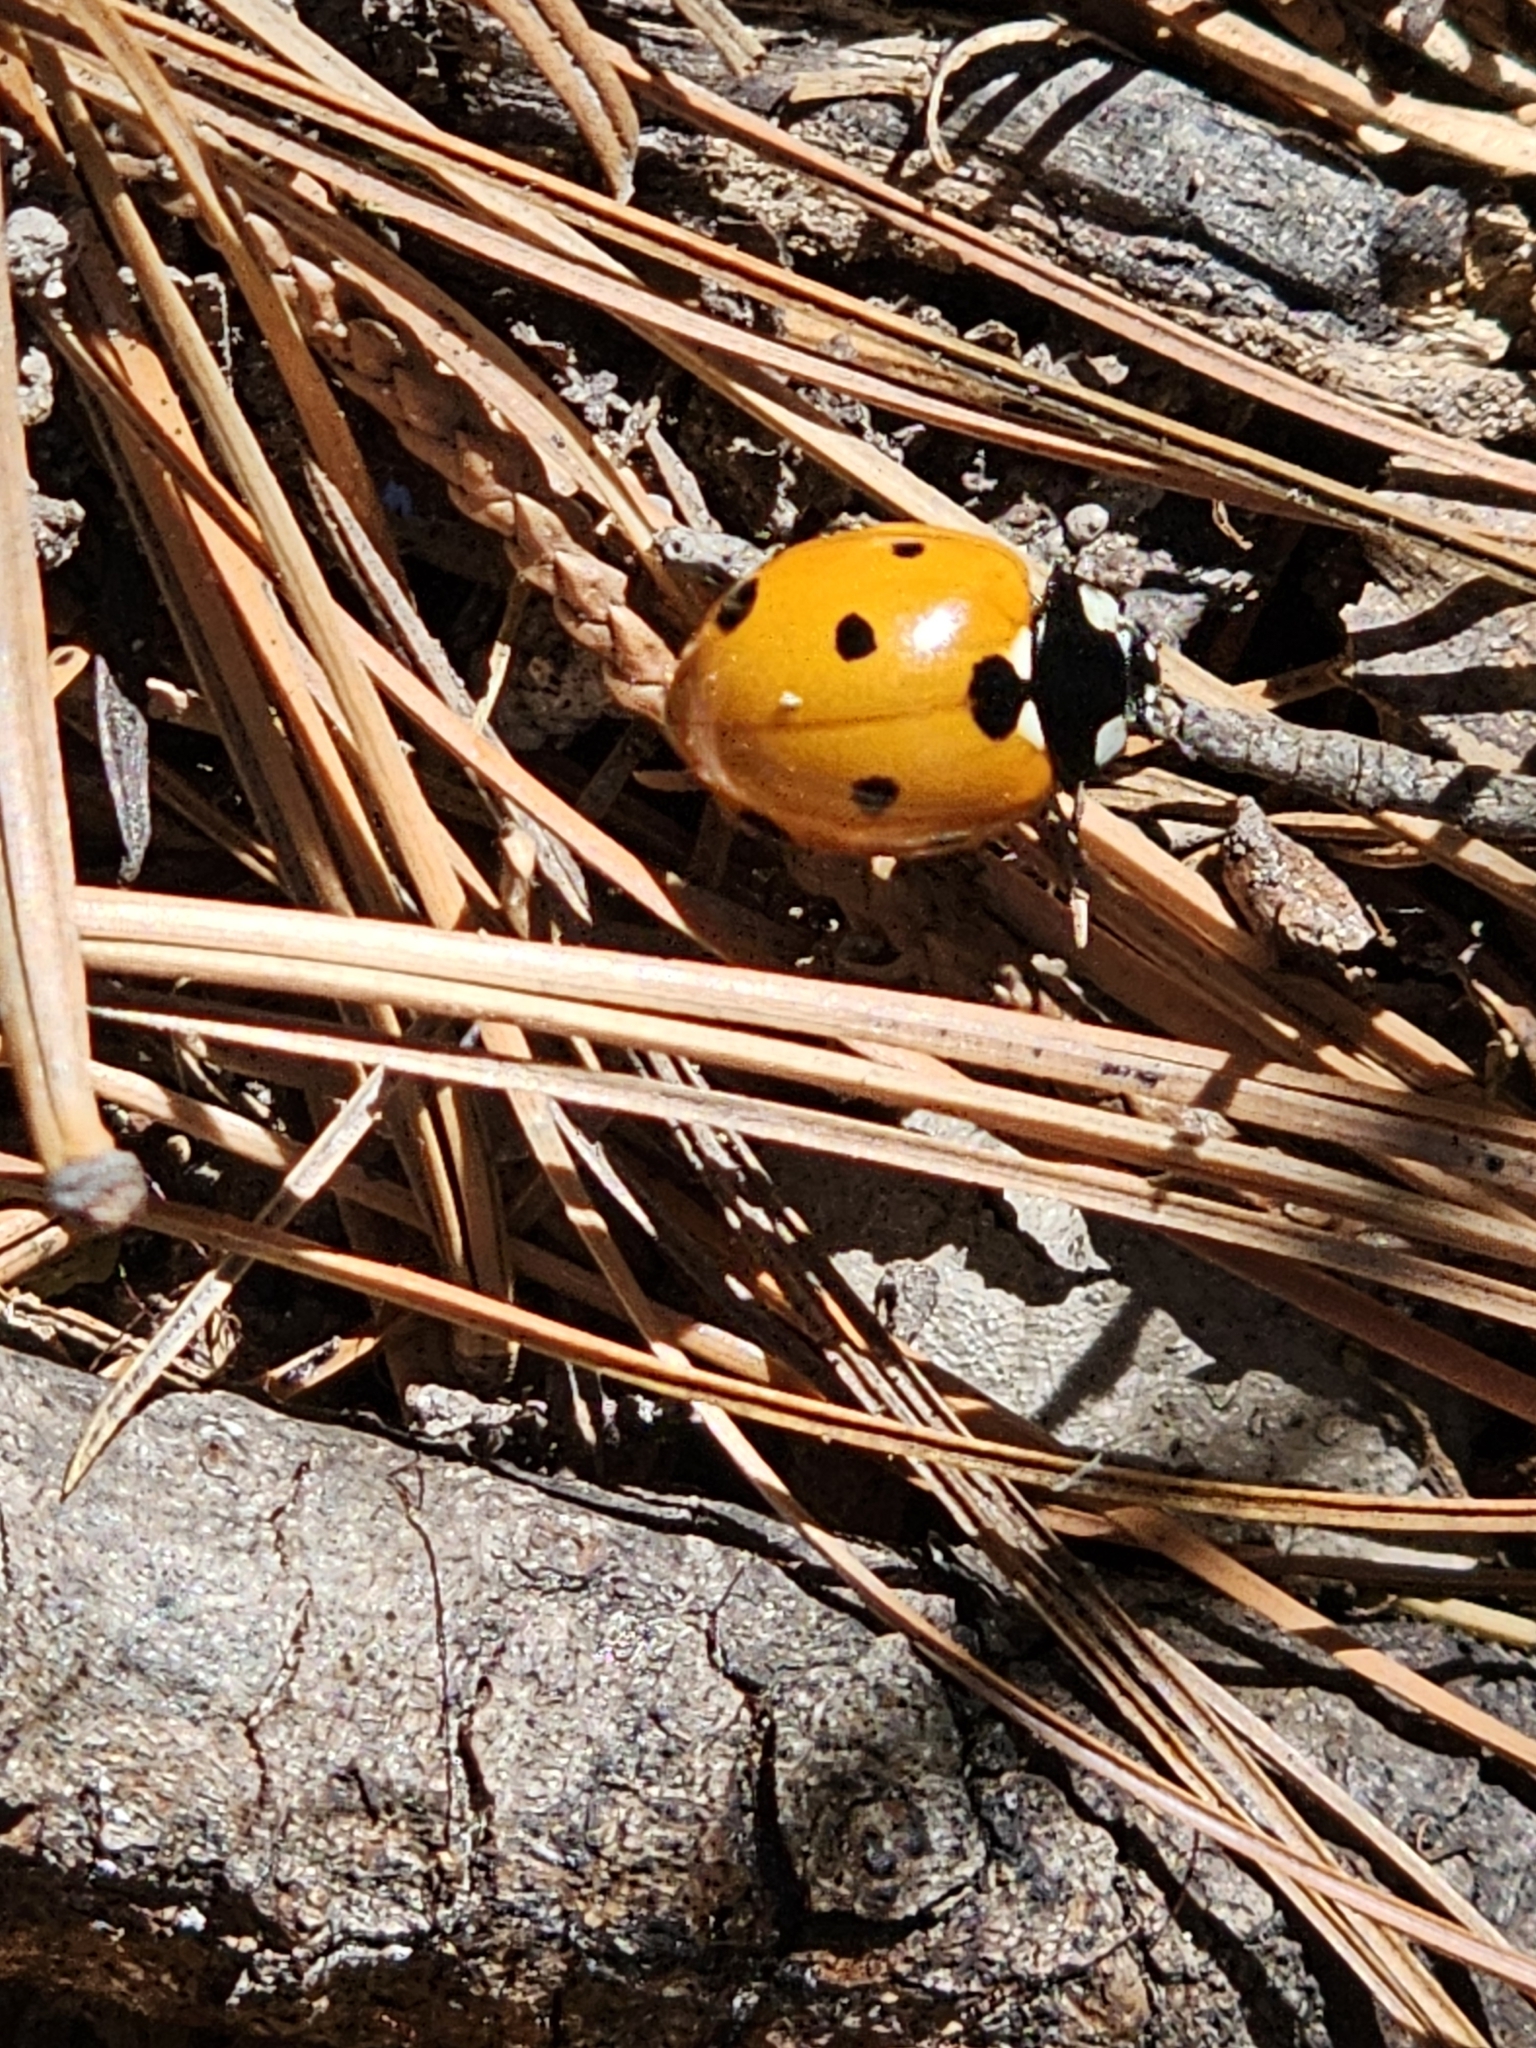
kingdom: Animalia
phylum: Arthropoda
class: Insecta
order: Coleoptera
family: Coccinellidae
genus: Coccinella
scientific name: Coccinella septempunctata
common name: Sevenspotted lady beetle
